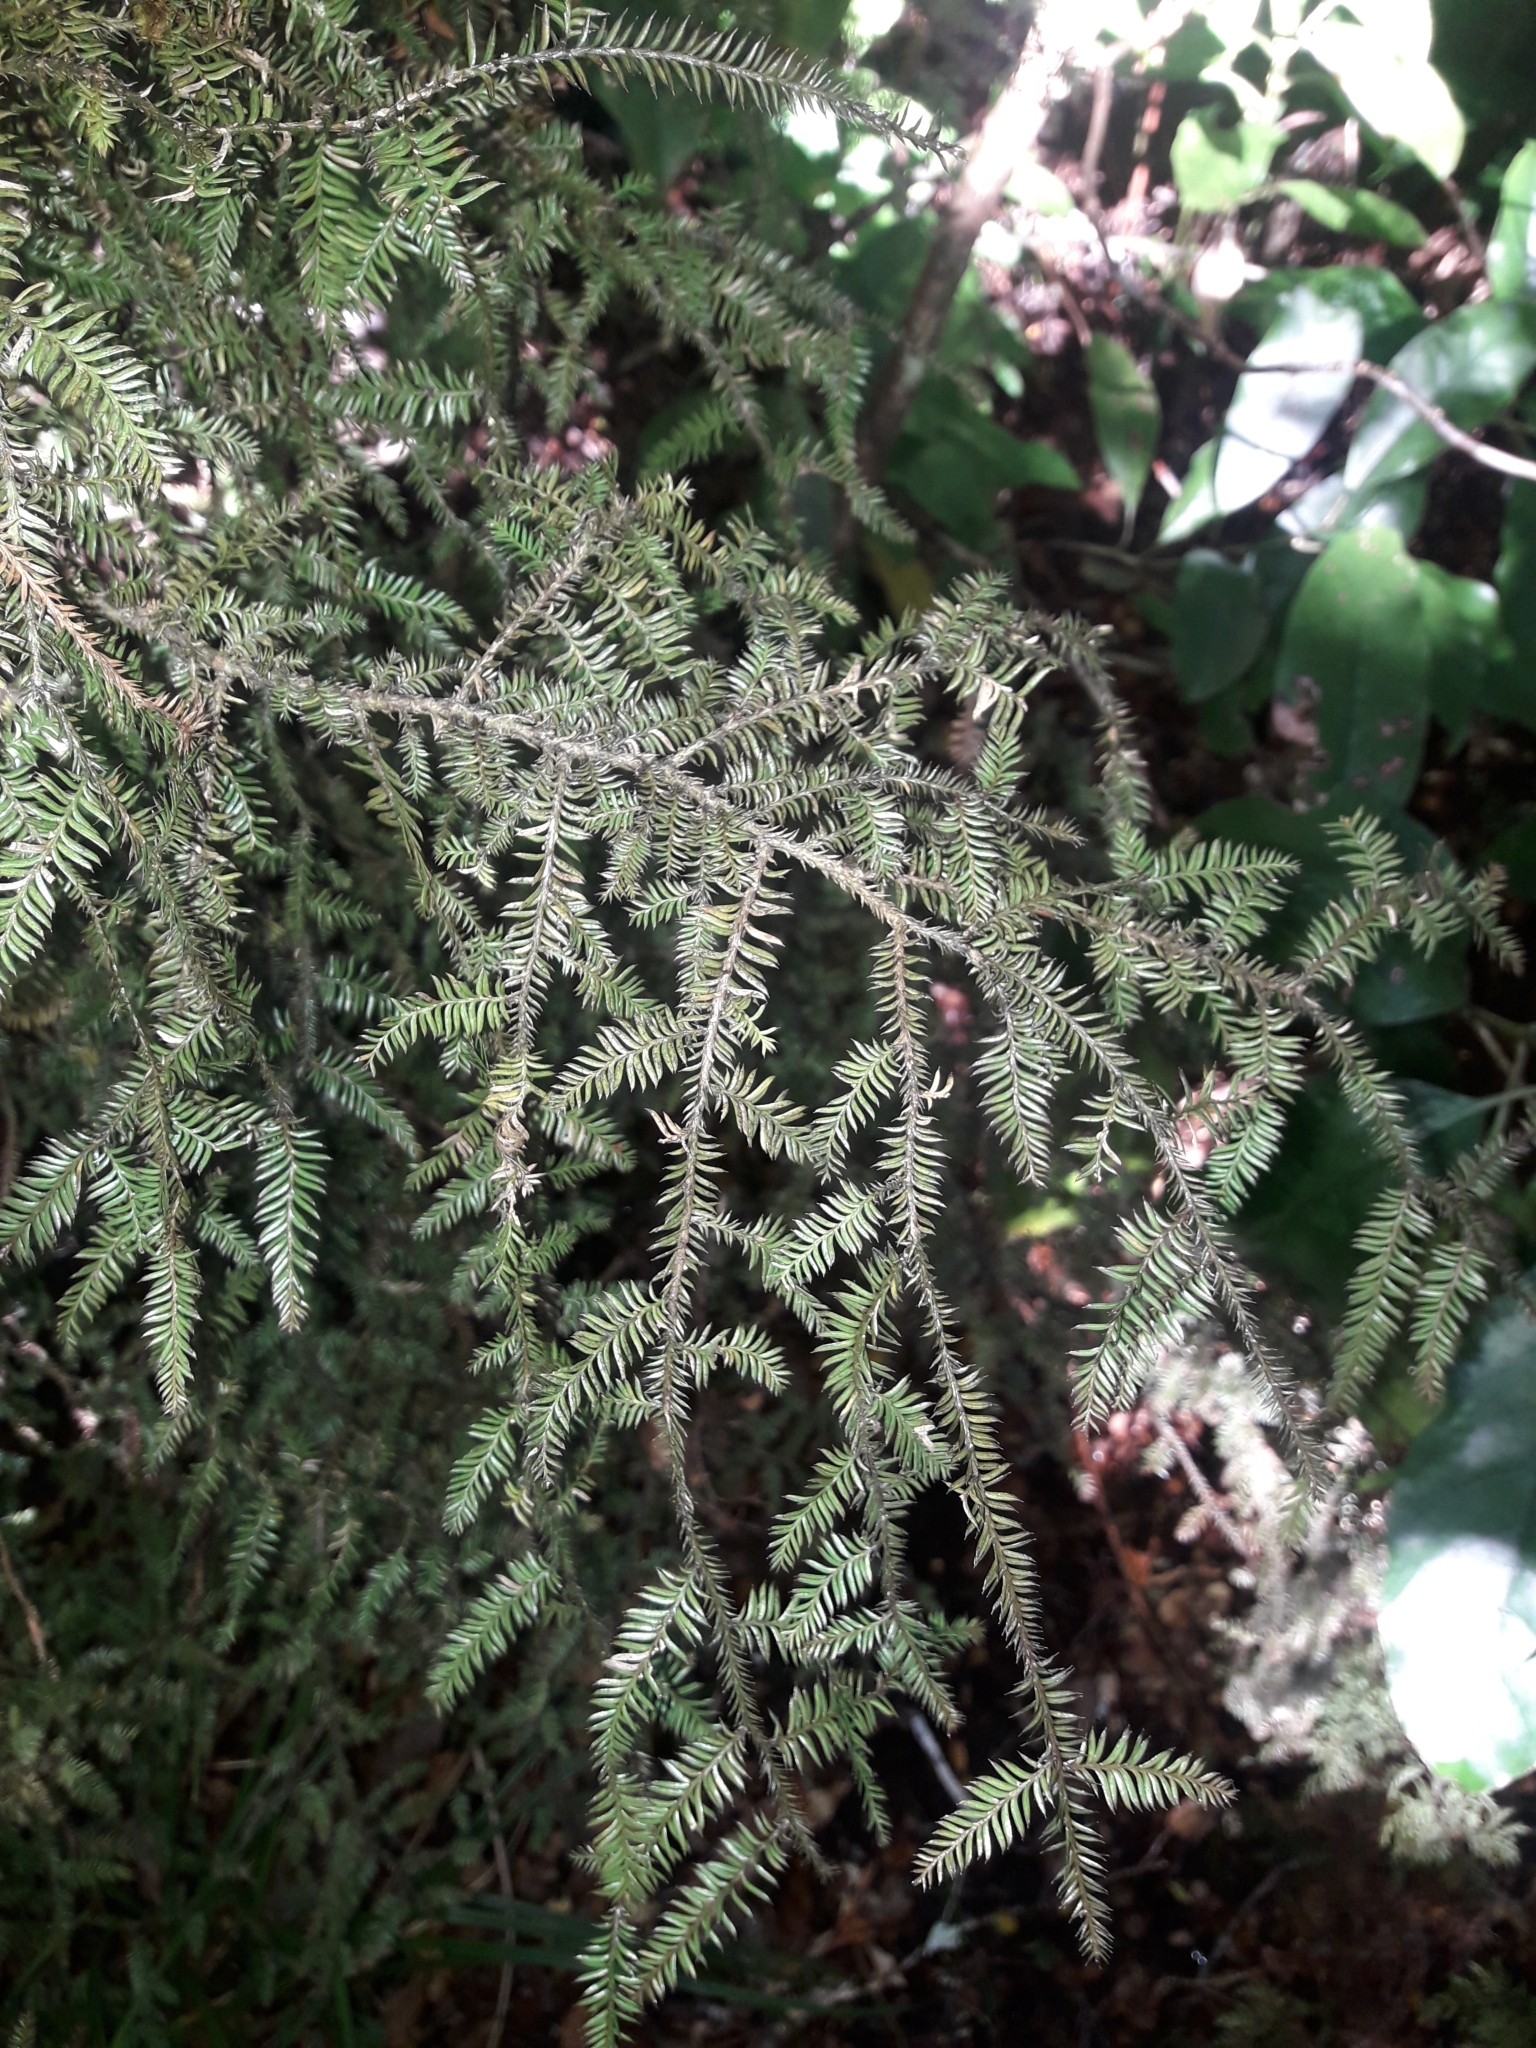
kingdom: Plantae
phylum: Tracheophyta
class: Pinopsida
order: Pinales
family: Podocarpaceae
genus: Dacrycarpus
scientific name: Dacrycarpus dacrydioides
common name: White pine
